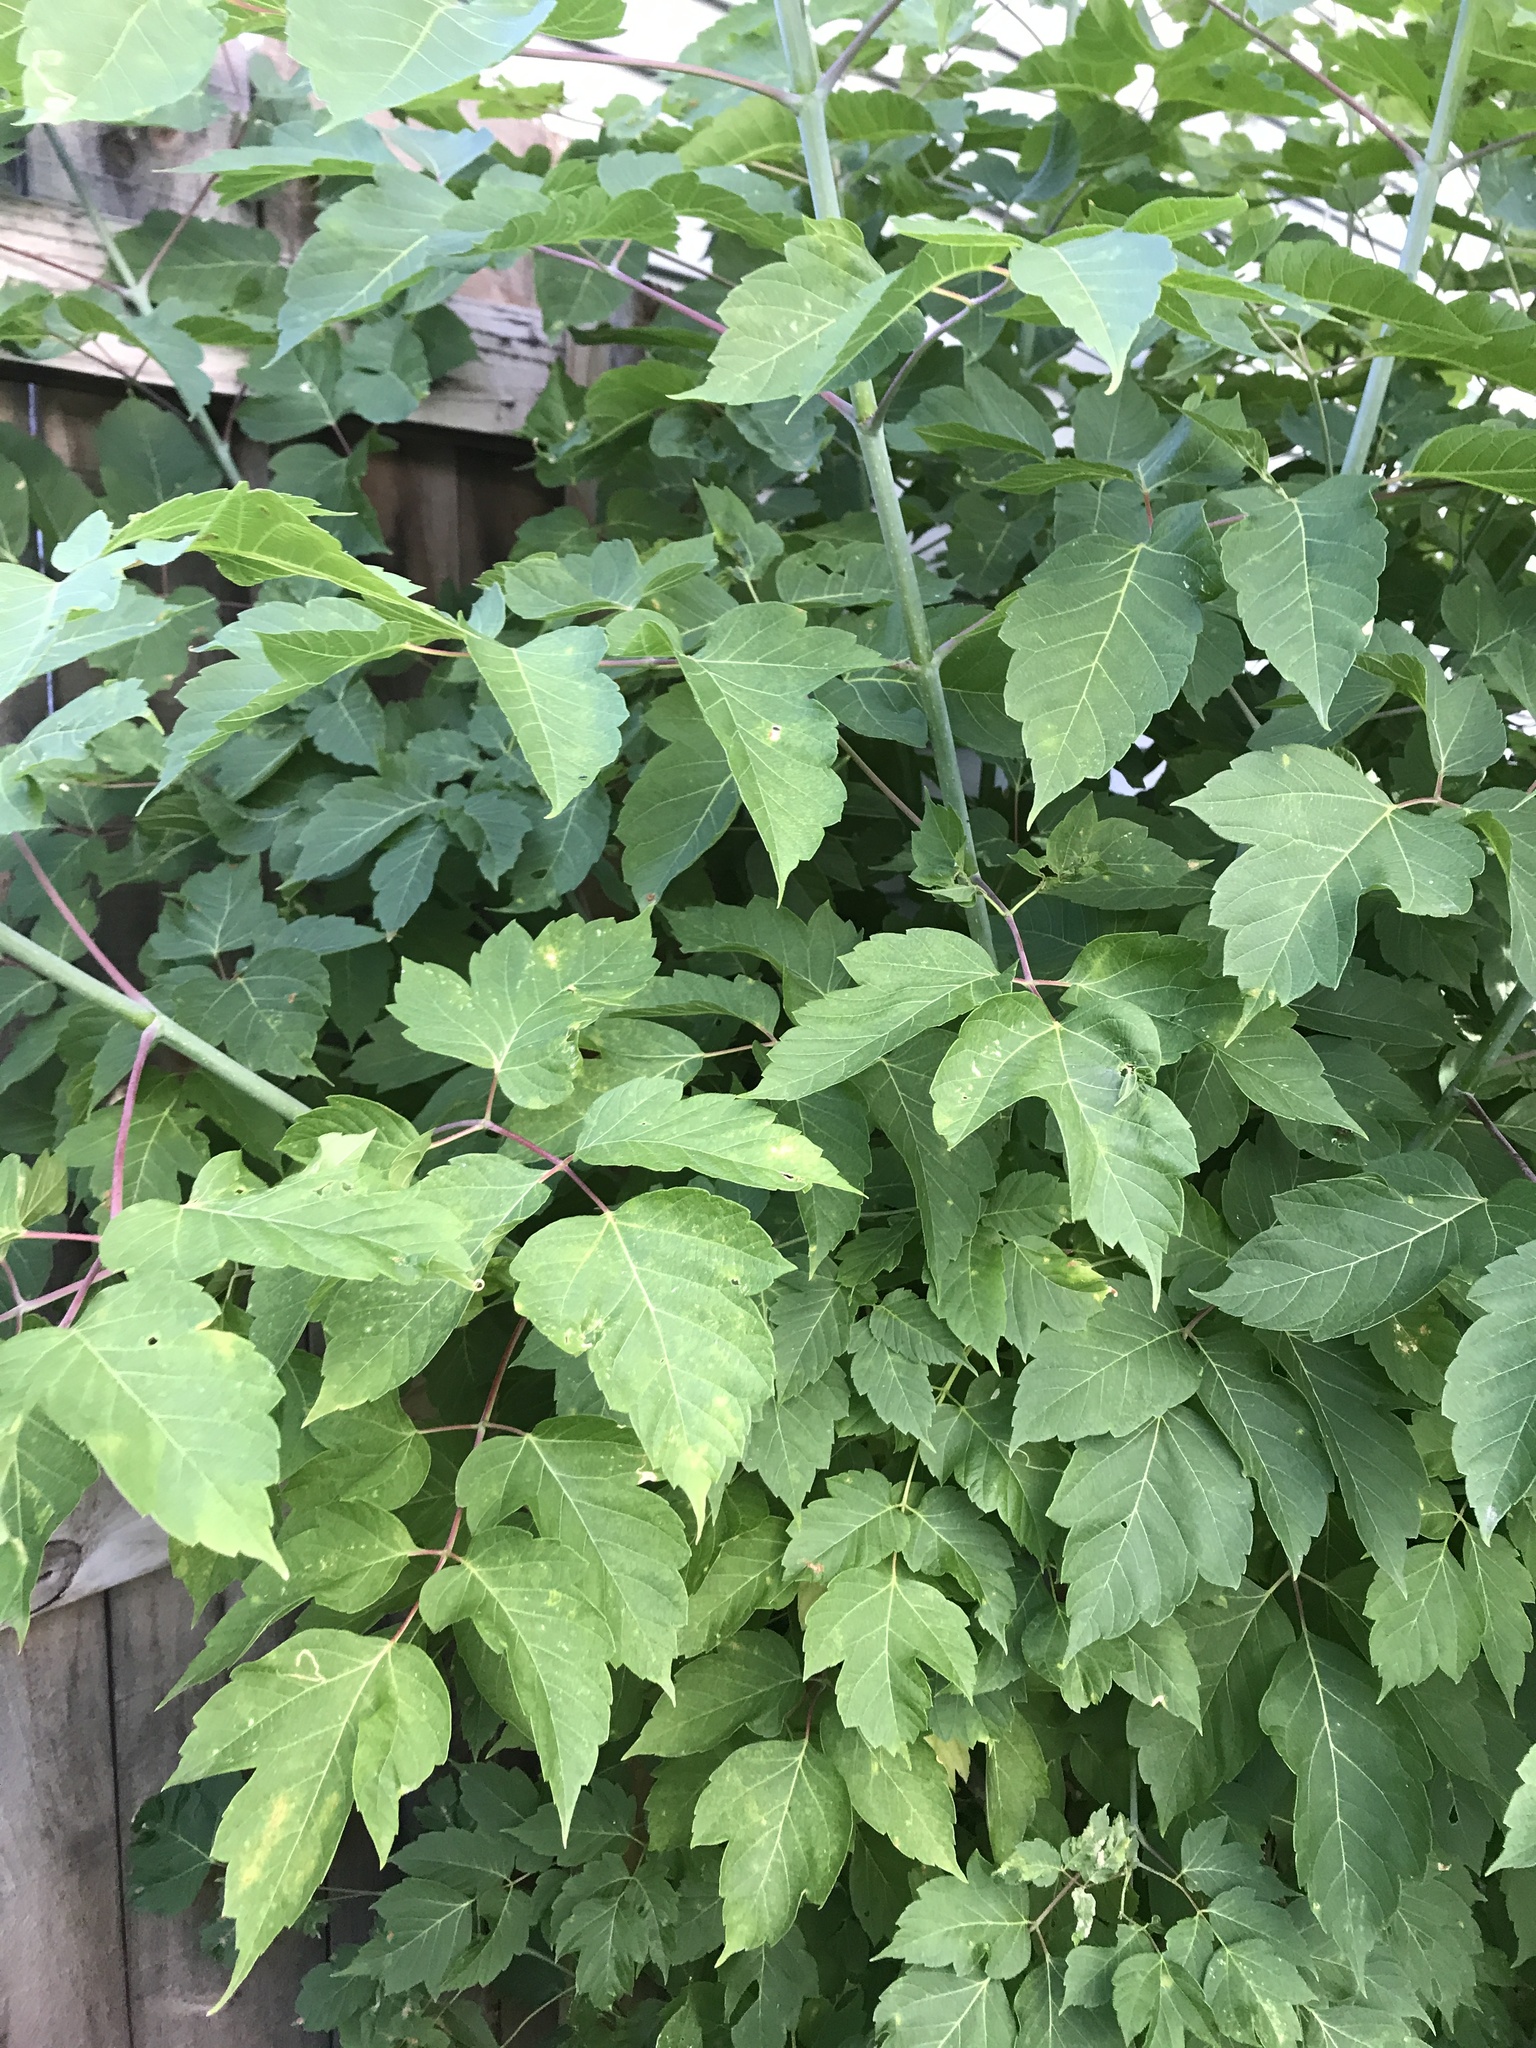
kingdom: Plantae
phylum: Tracheophyta
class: Magnoliopsida
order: Sapindales
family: Sapindaceae
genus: Acer
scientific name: Acer negundo
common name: Ashleaf maple
